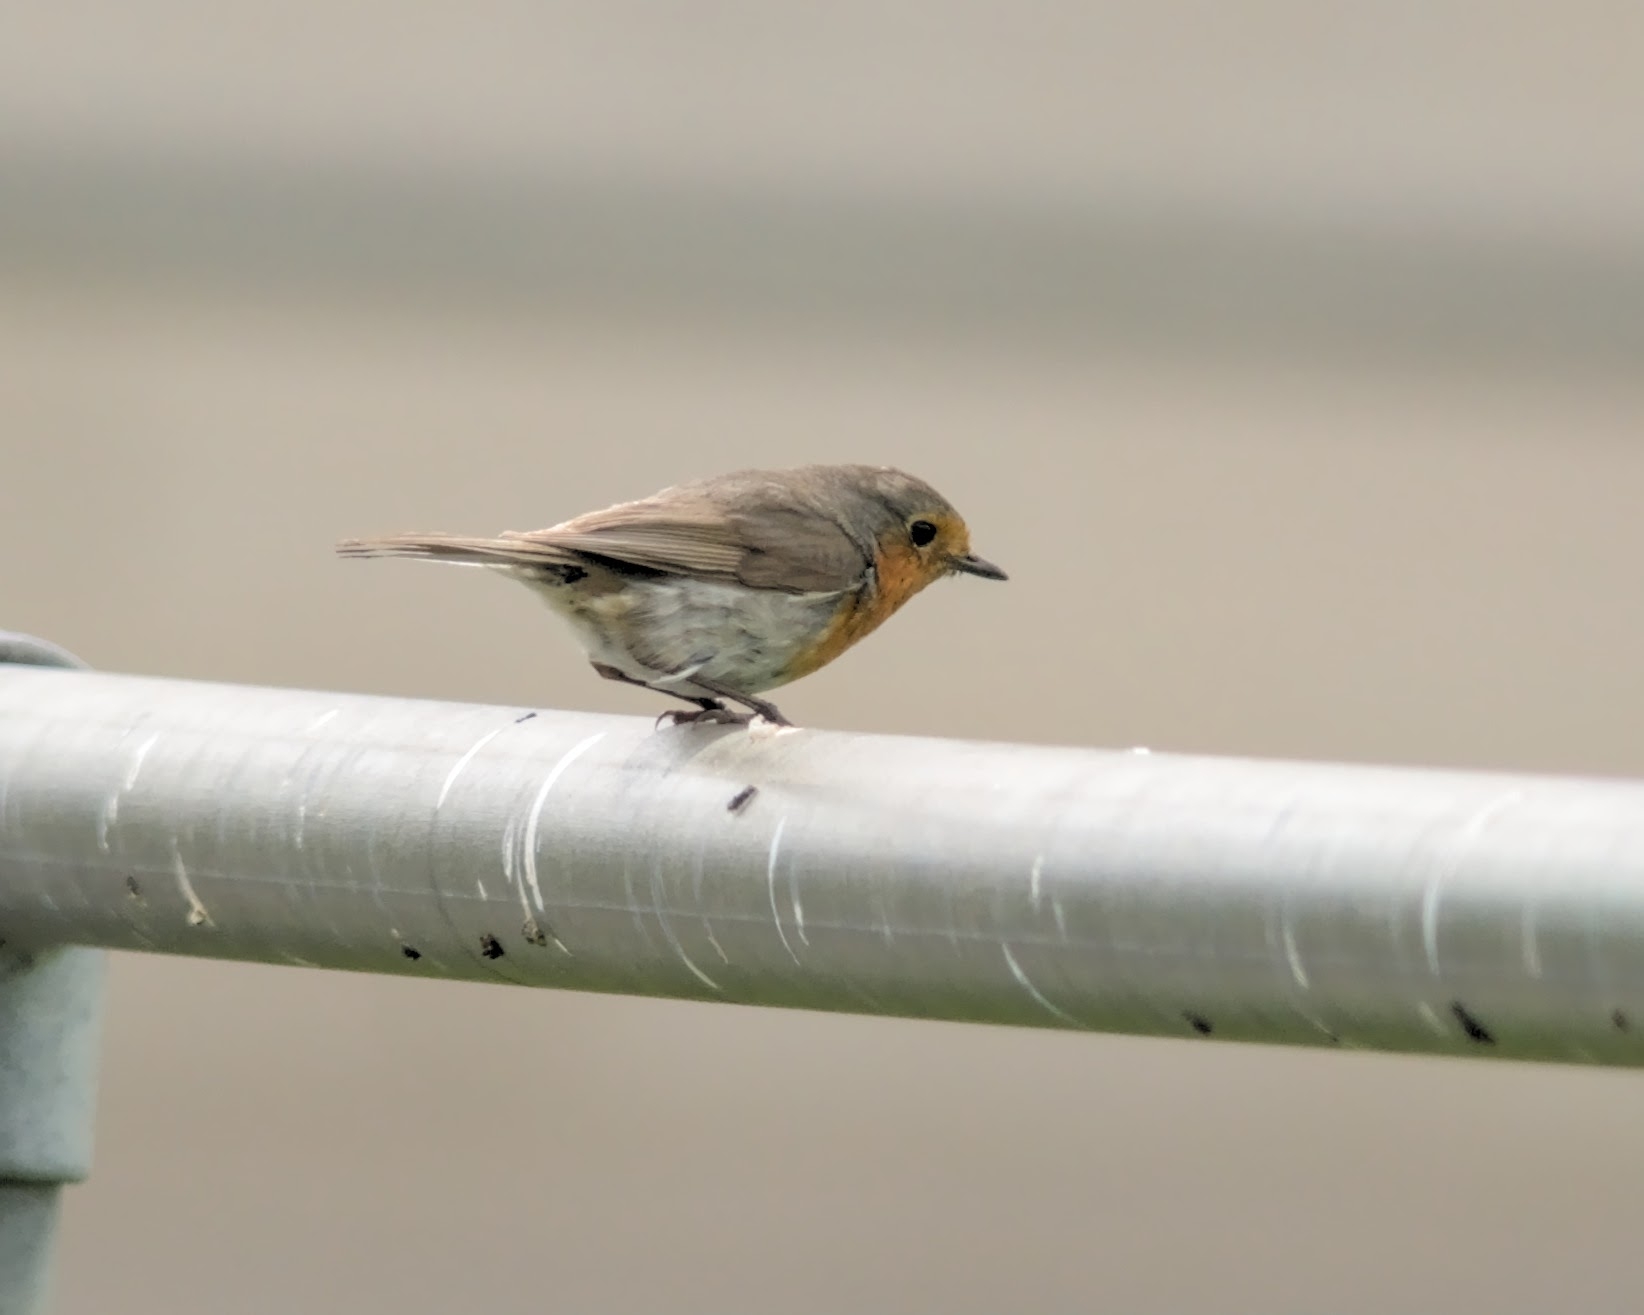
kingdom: Animalia
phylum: Chordata
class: Aves
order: Passeriformes
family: Muscicapidae
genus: Erithacus
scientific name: Erithacus rubecula
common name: European robin
